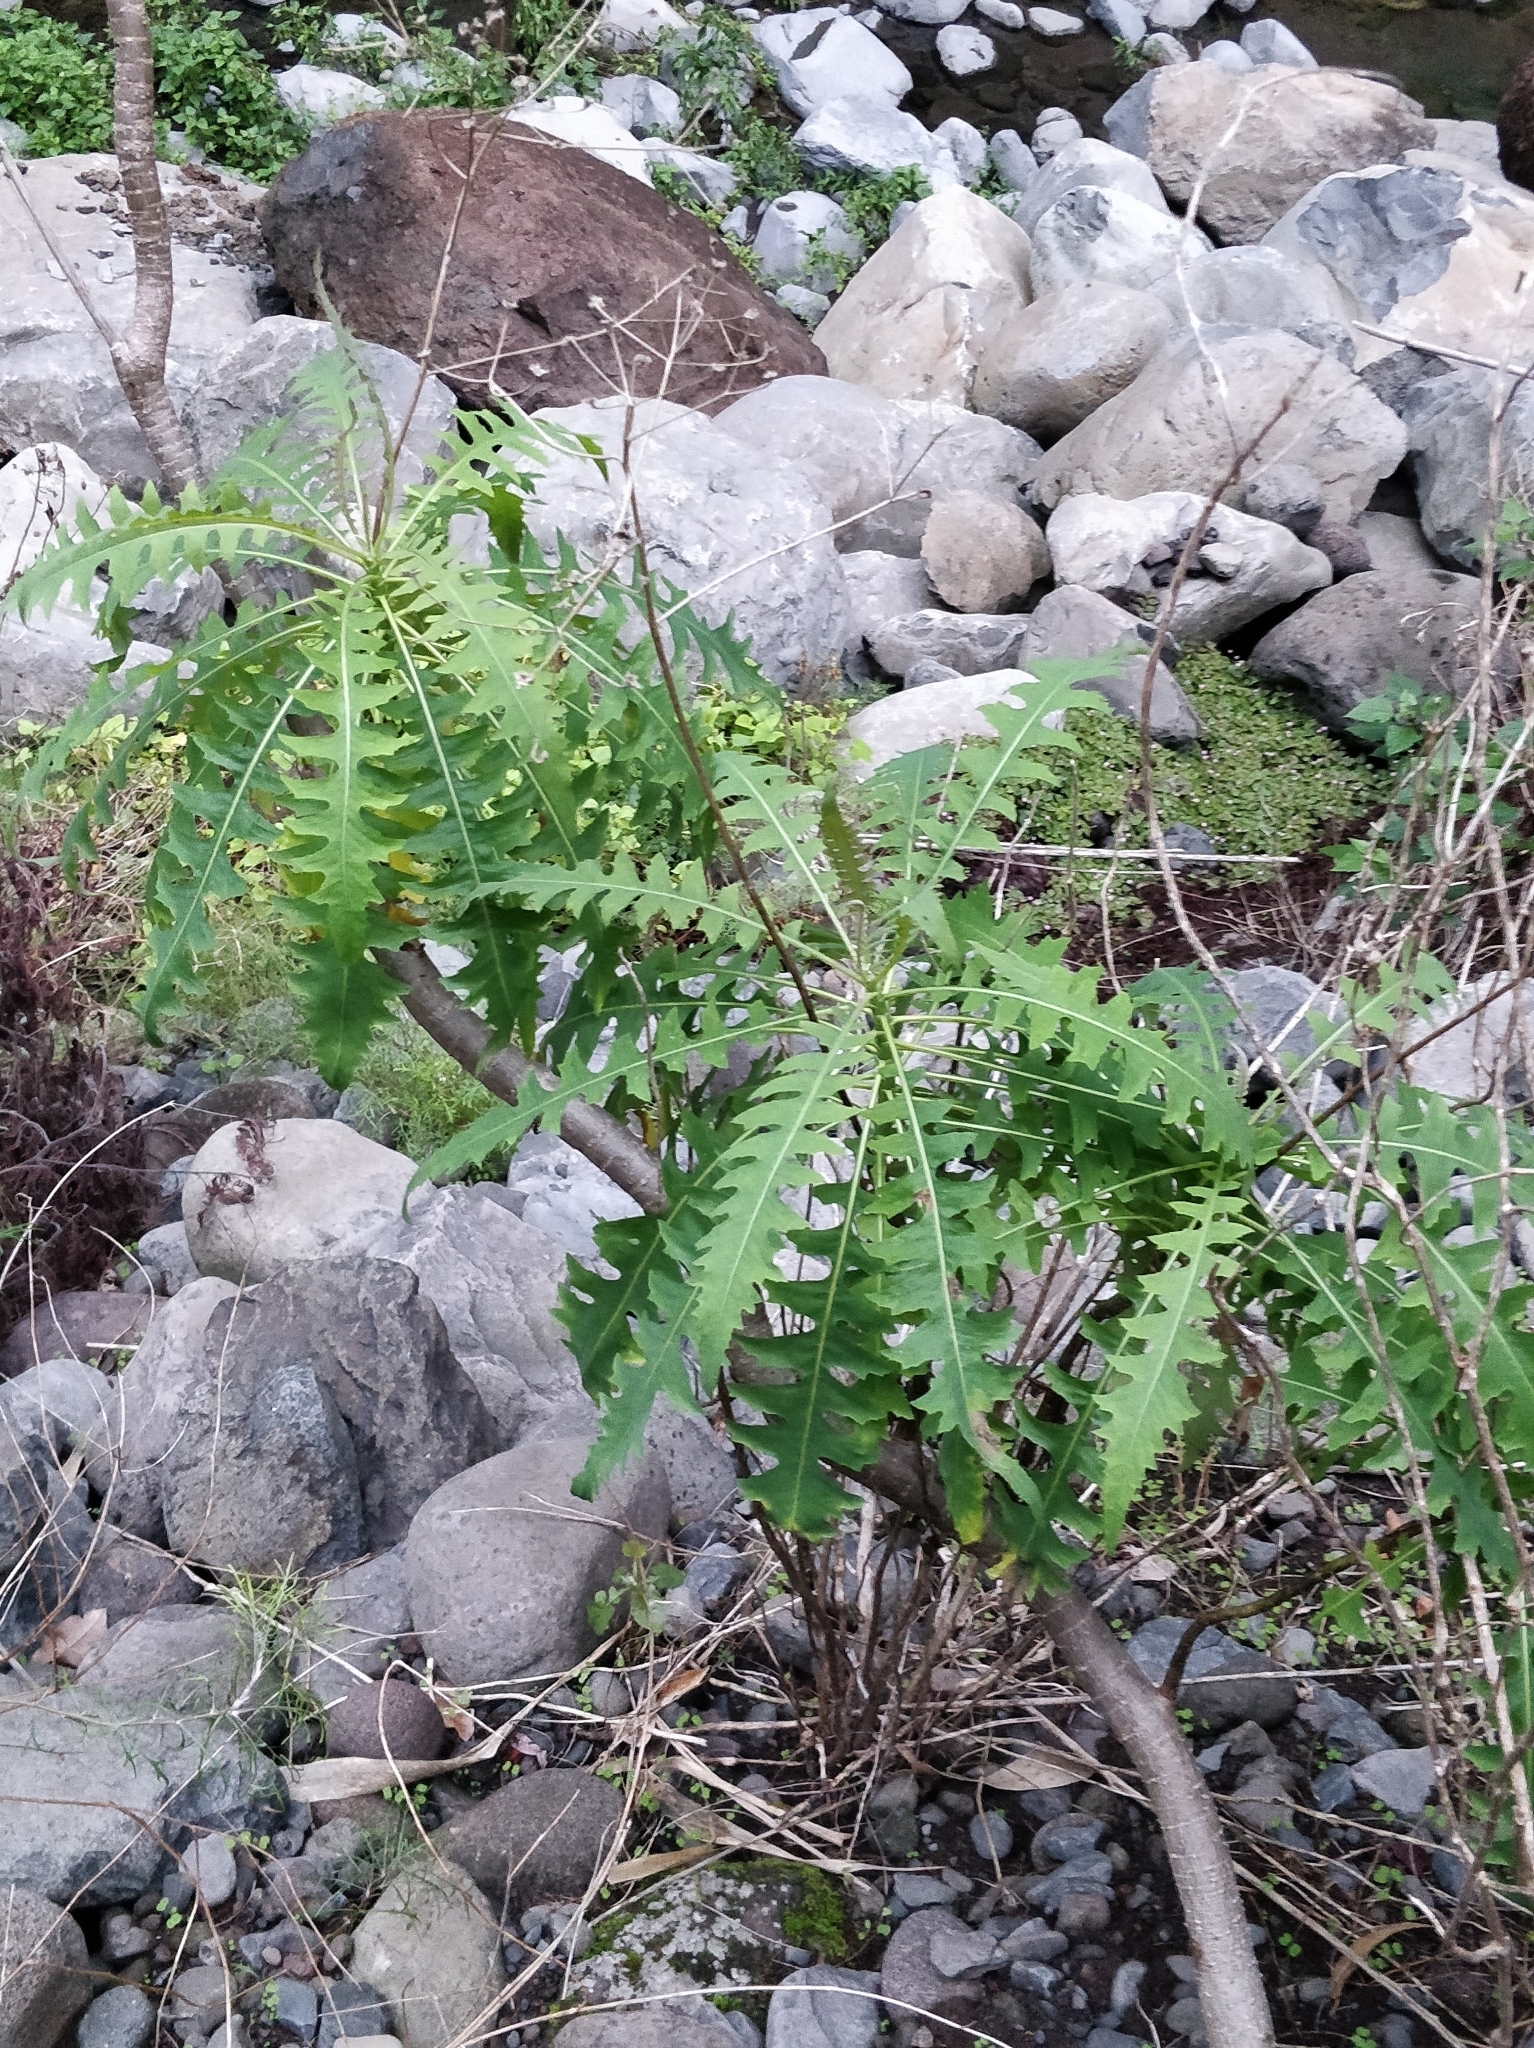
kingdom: Plantae
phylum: Tracheophyta
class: Magnoliopsida
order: Asterales
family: Asteraceae
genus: Sonchus
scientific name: Sonchus pinnatus
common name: Wing-leaved sow-thistle
